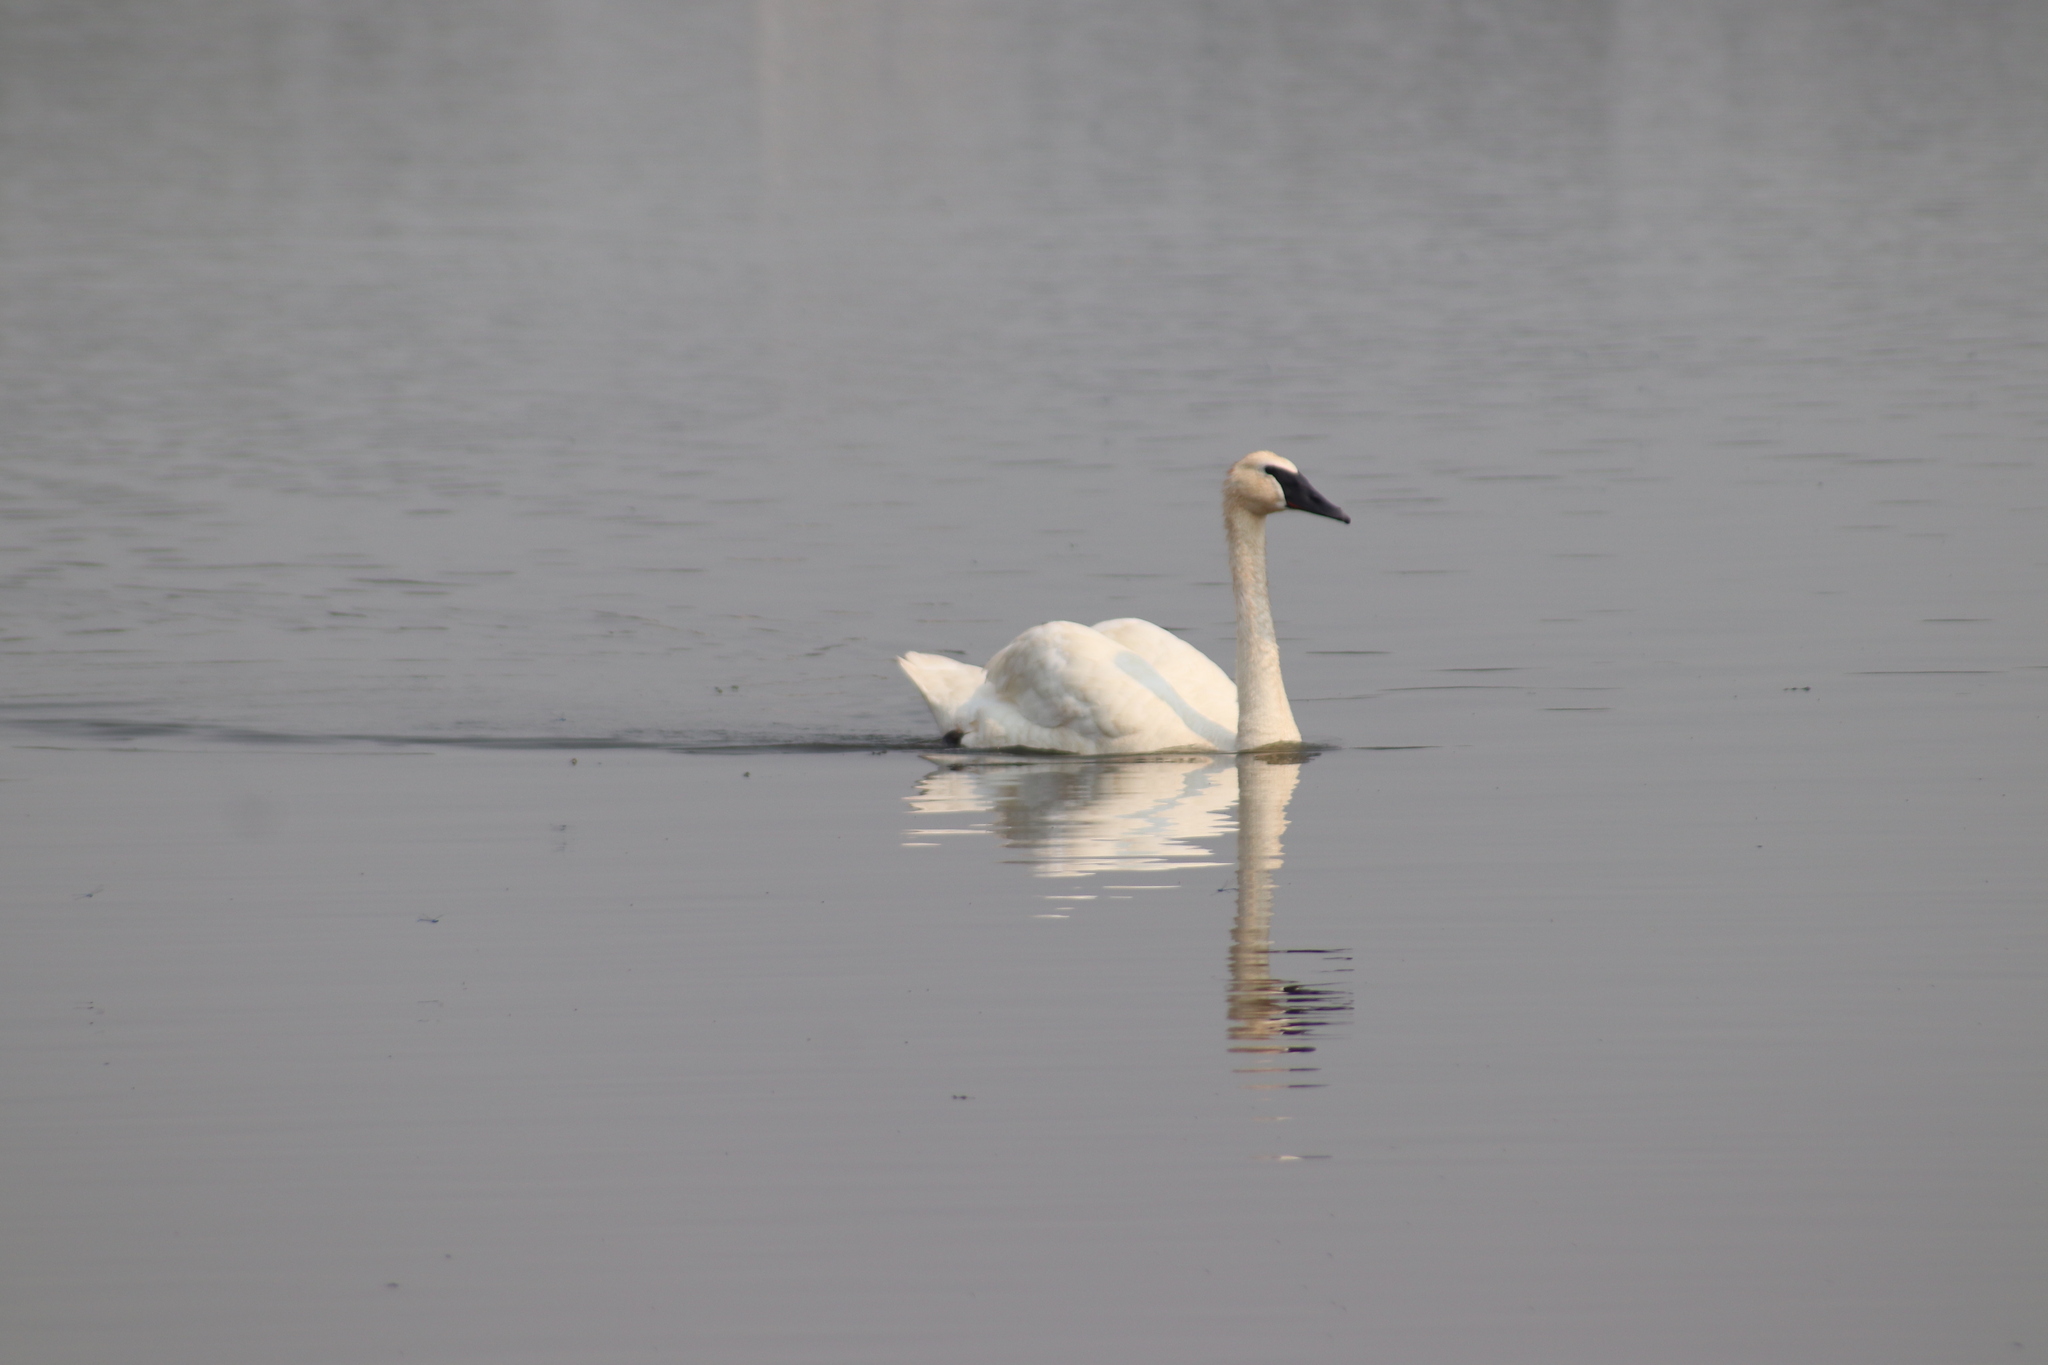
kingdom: Animalia
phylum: Chordata
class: Aves
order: Anseriformes
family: Anatidae
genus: Cygnus
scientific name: Cygnus buccinator
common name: Trumpeter swan
